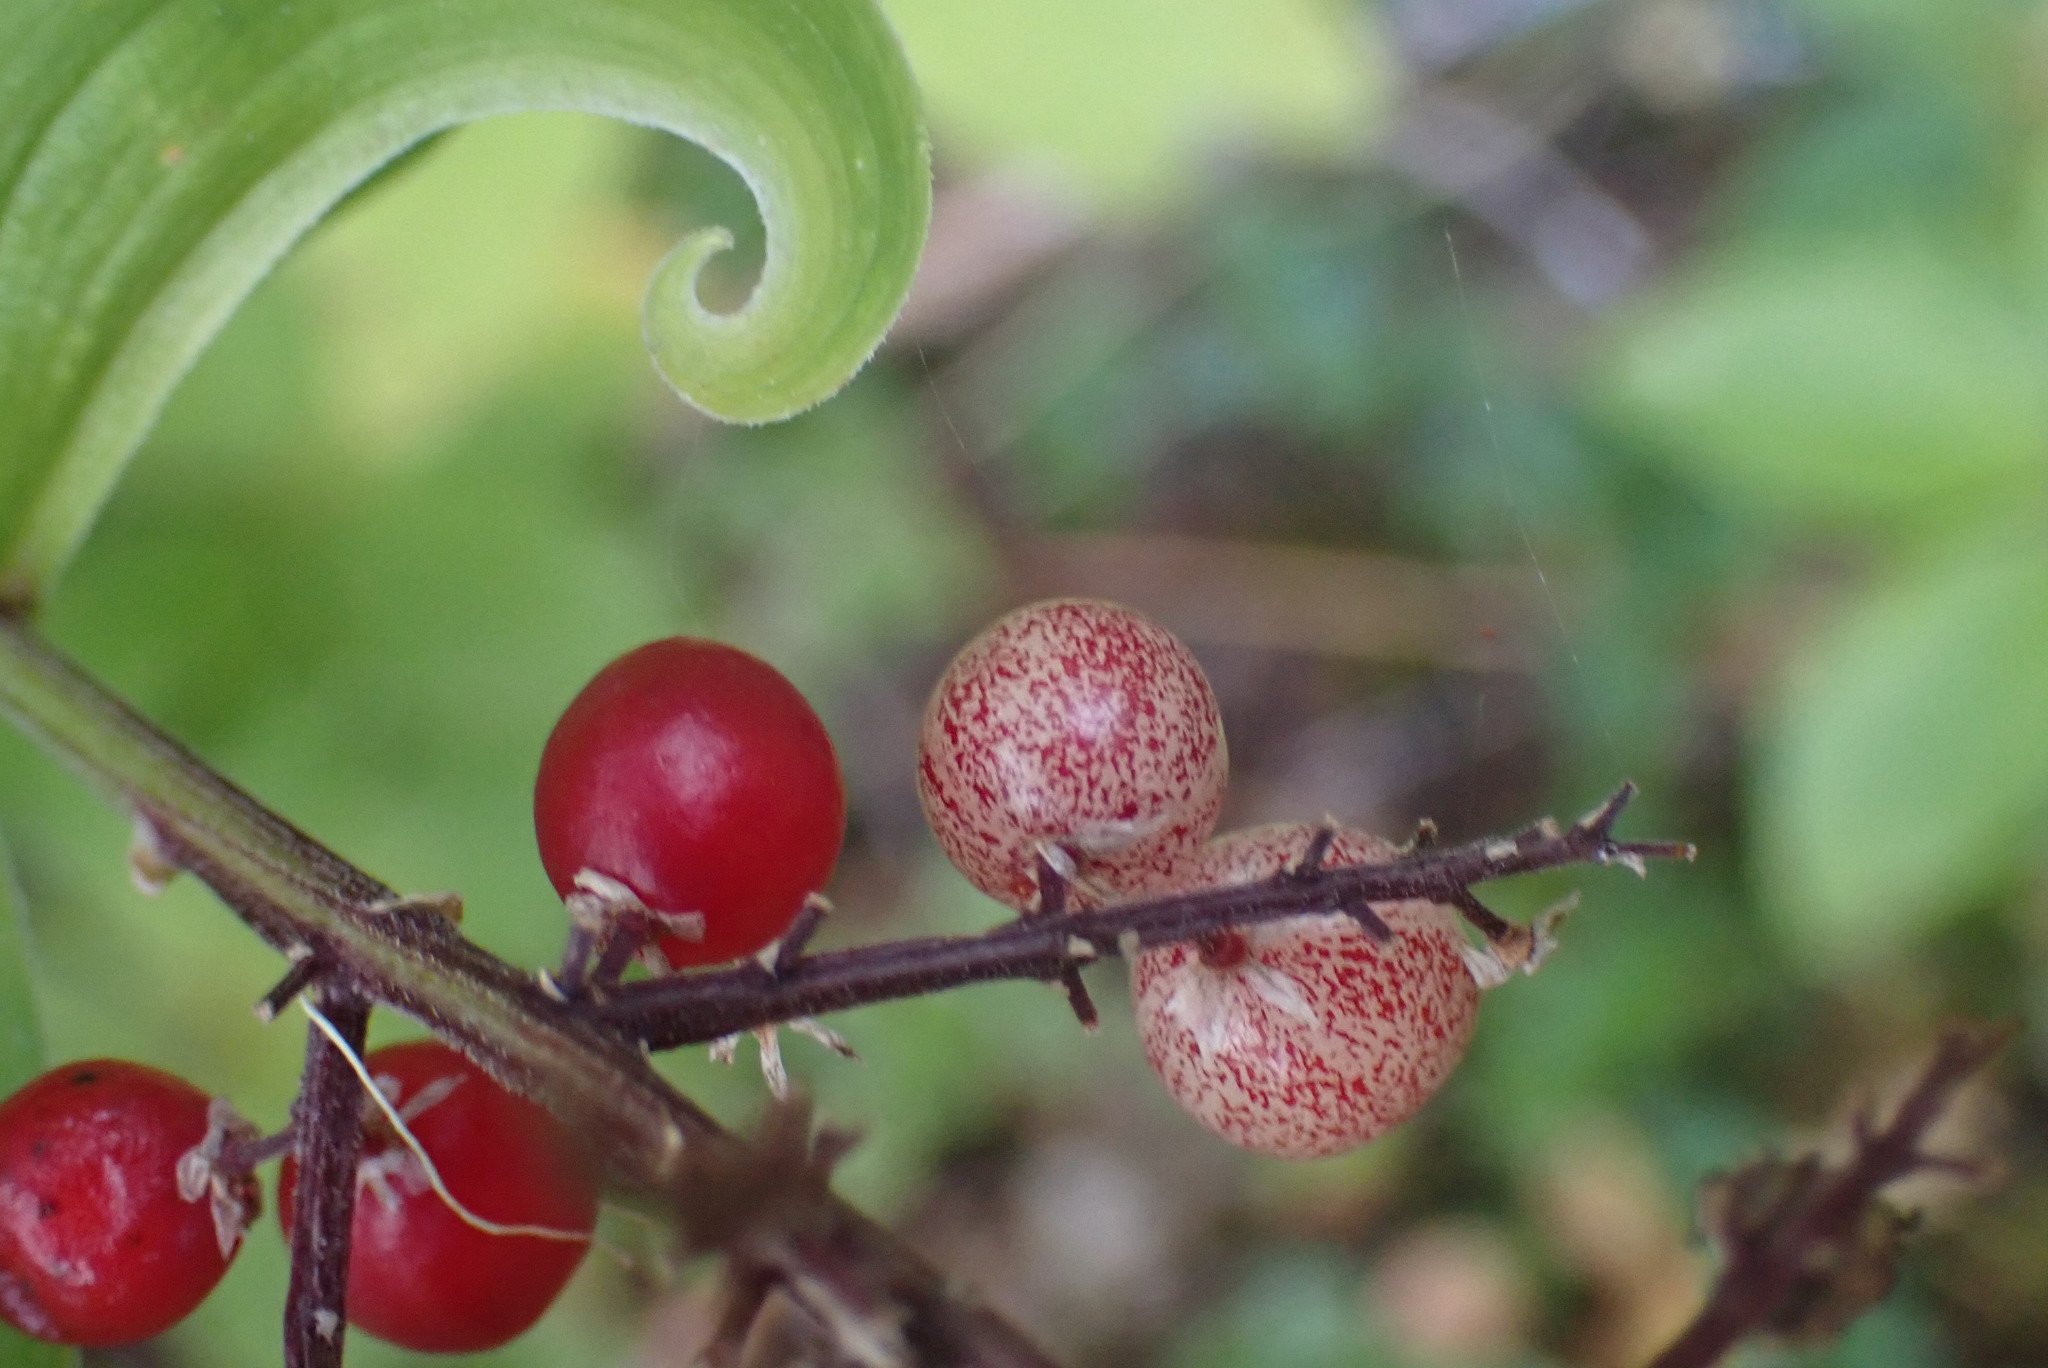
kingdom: Plantae
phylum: Tracheophyta
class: Liliopsida
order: Asparagales
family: Asparagaceae
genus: Maianthemum
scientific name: Maianthemum racemosum
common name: False spikenard
